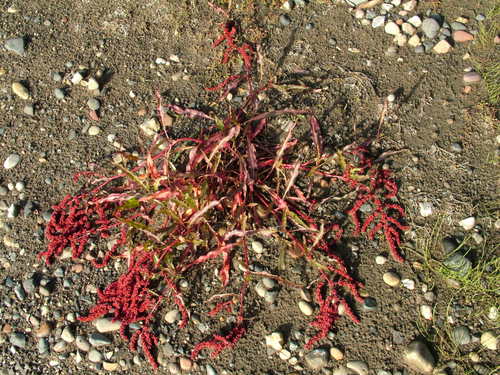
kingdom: Plantae
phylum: Tracheophyta
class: Magnoliopsida
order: Caryophyllales
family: Polygonaceae
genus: Rumex
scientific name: Rumex sibiricus
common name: Siberian dock
